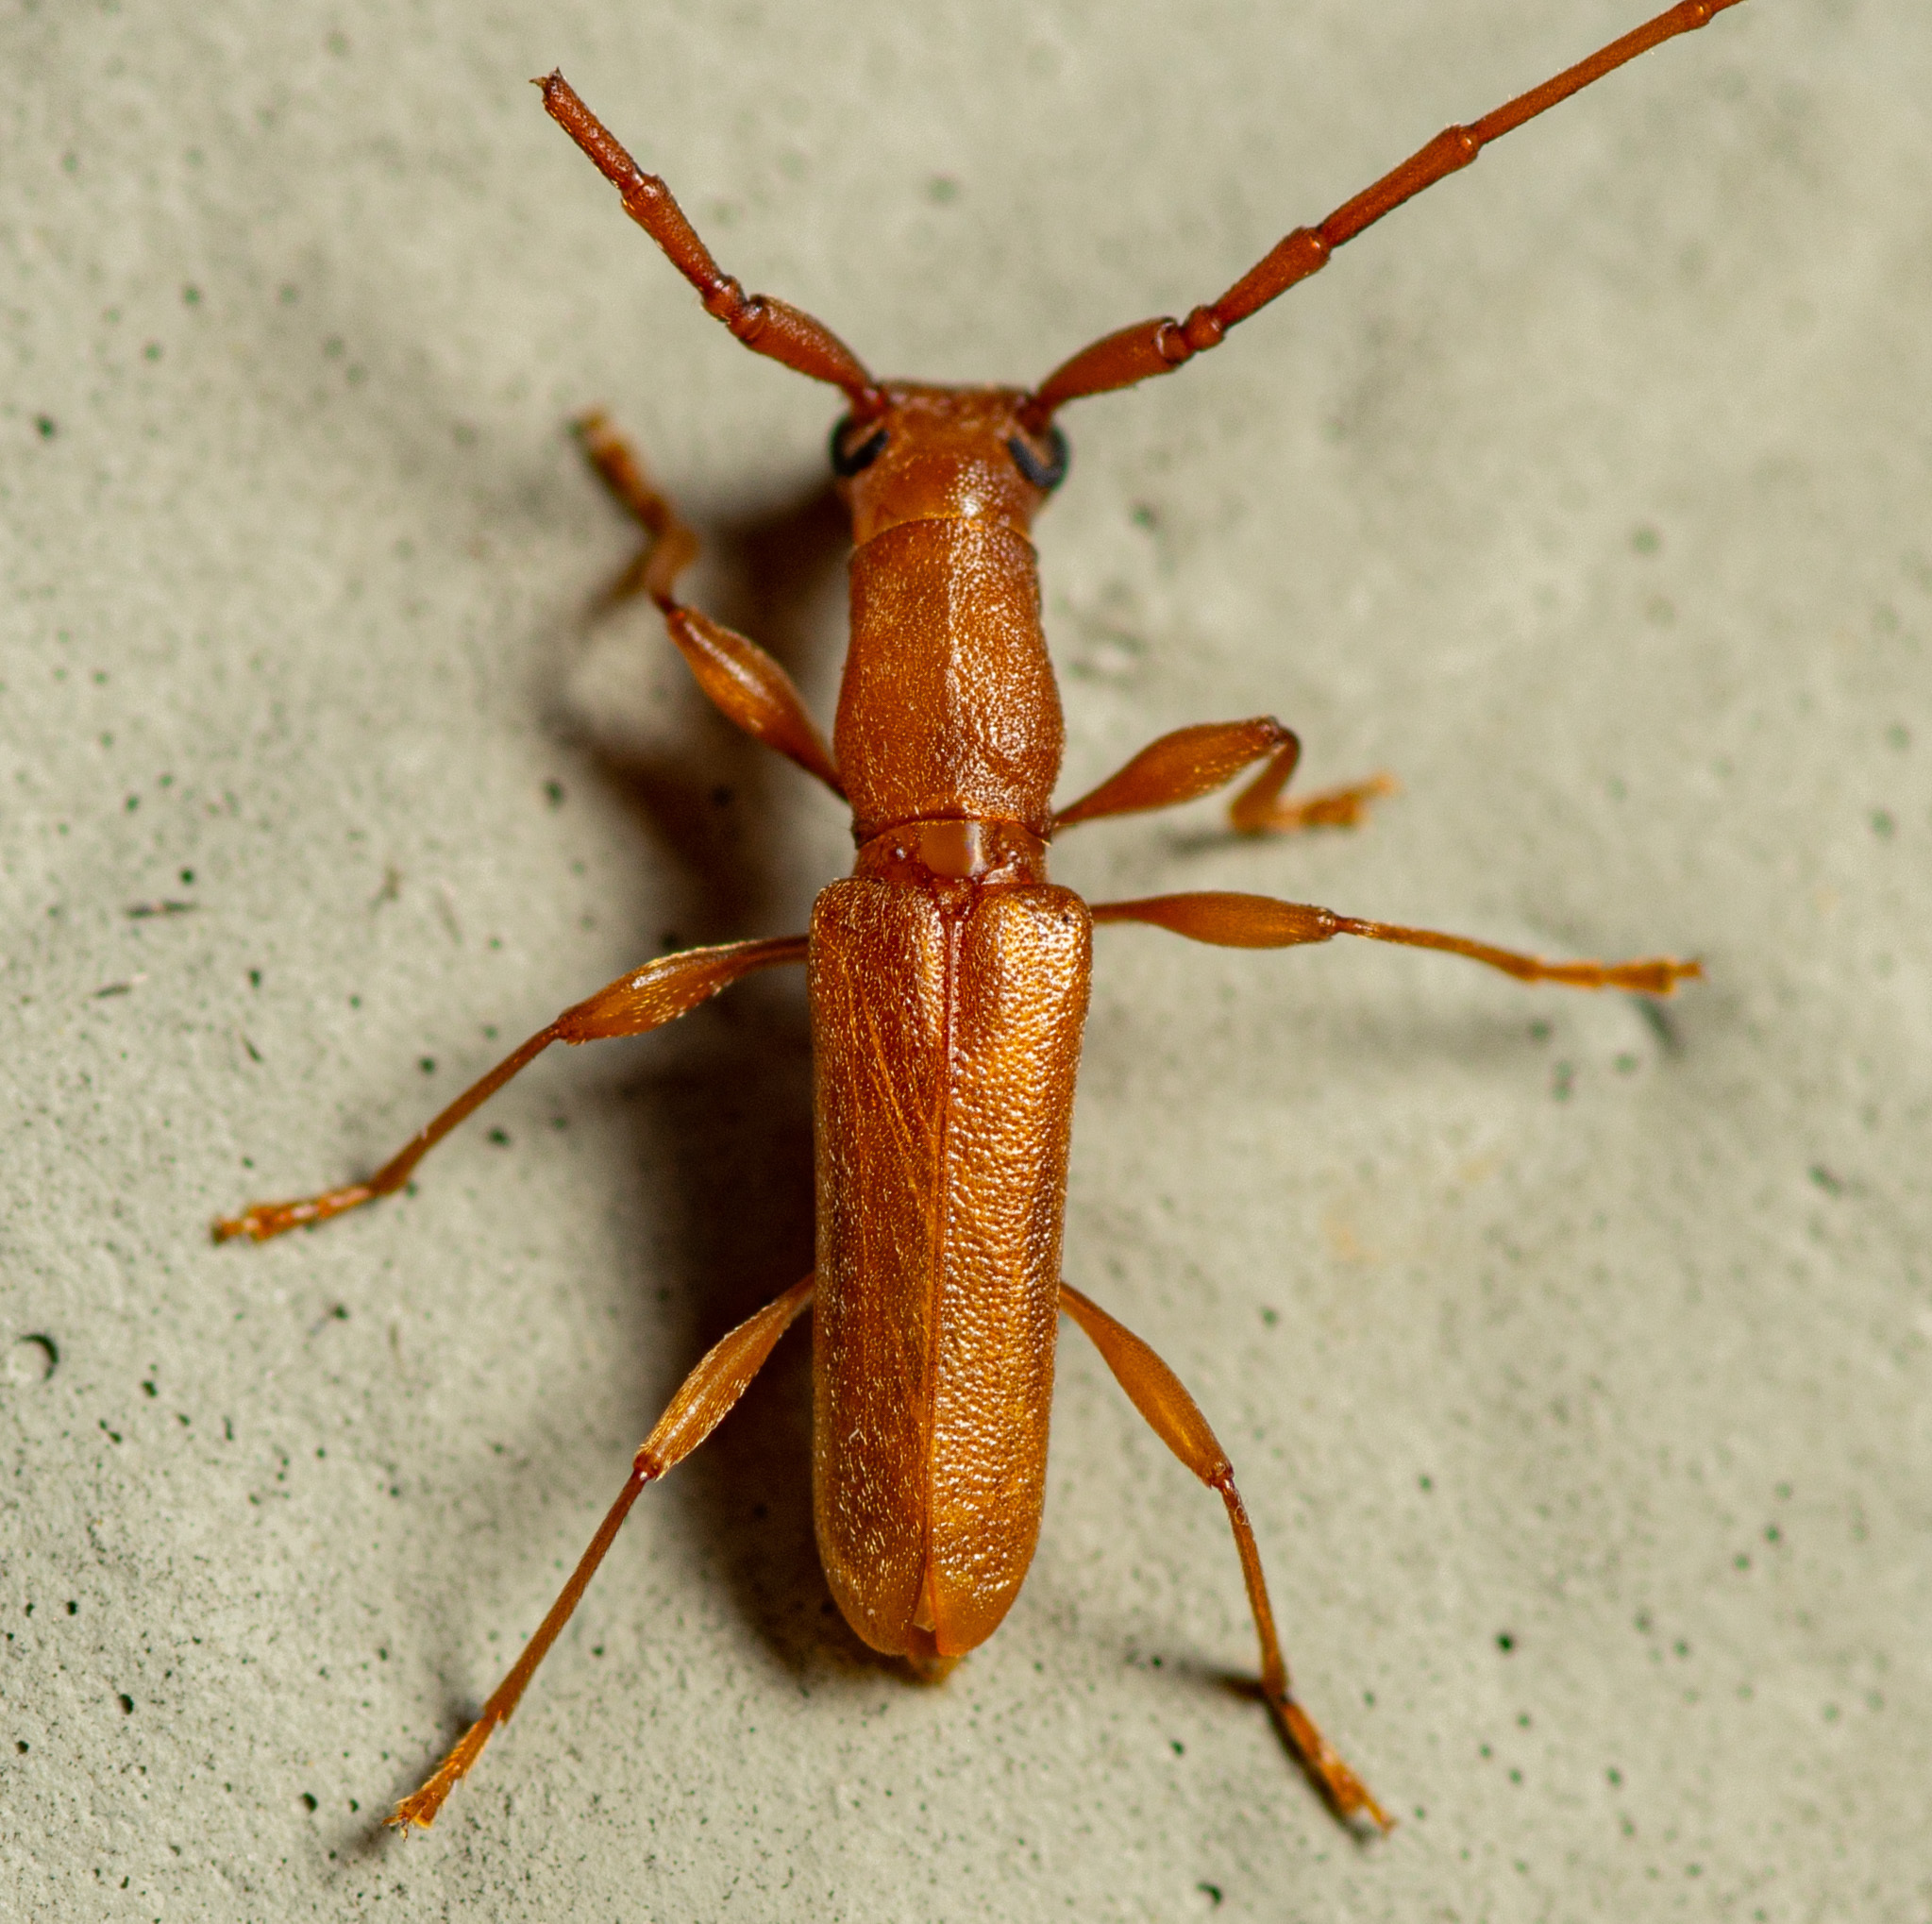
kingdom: Animalia
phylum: Arthropoda
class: Insecta
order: Coleoptera
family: Cerambycidae
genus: Hypexilis
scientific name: Hypexilis pallida
